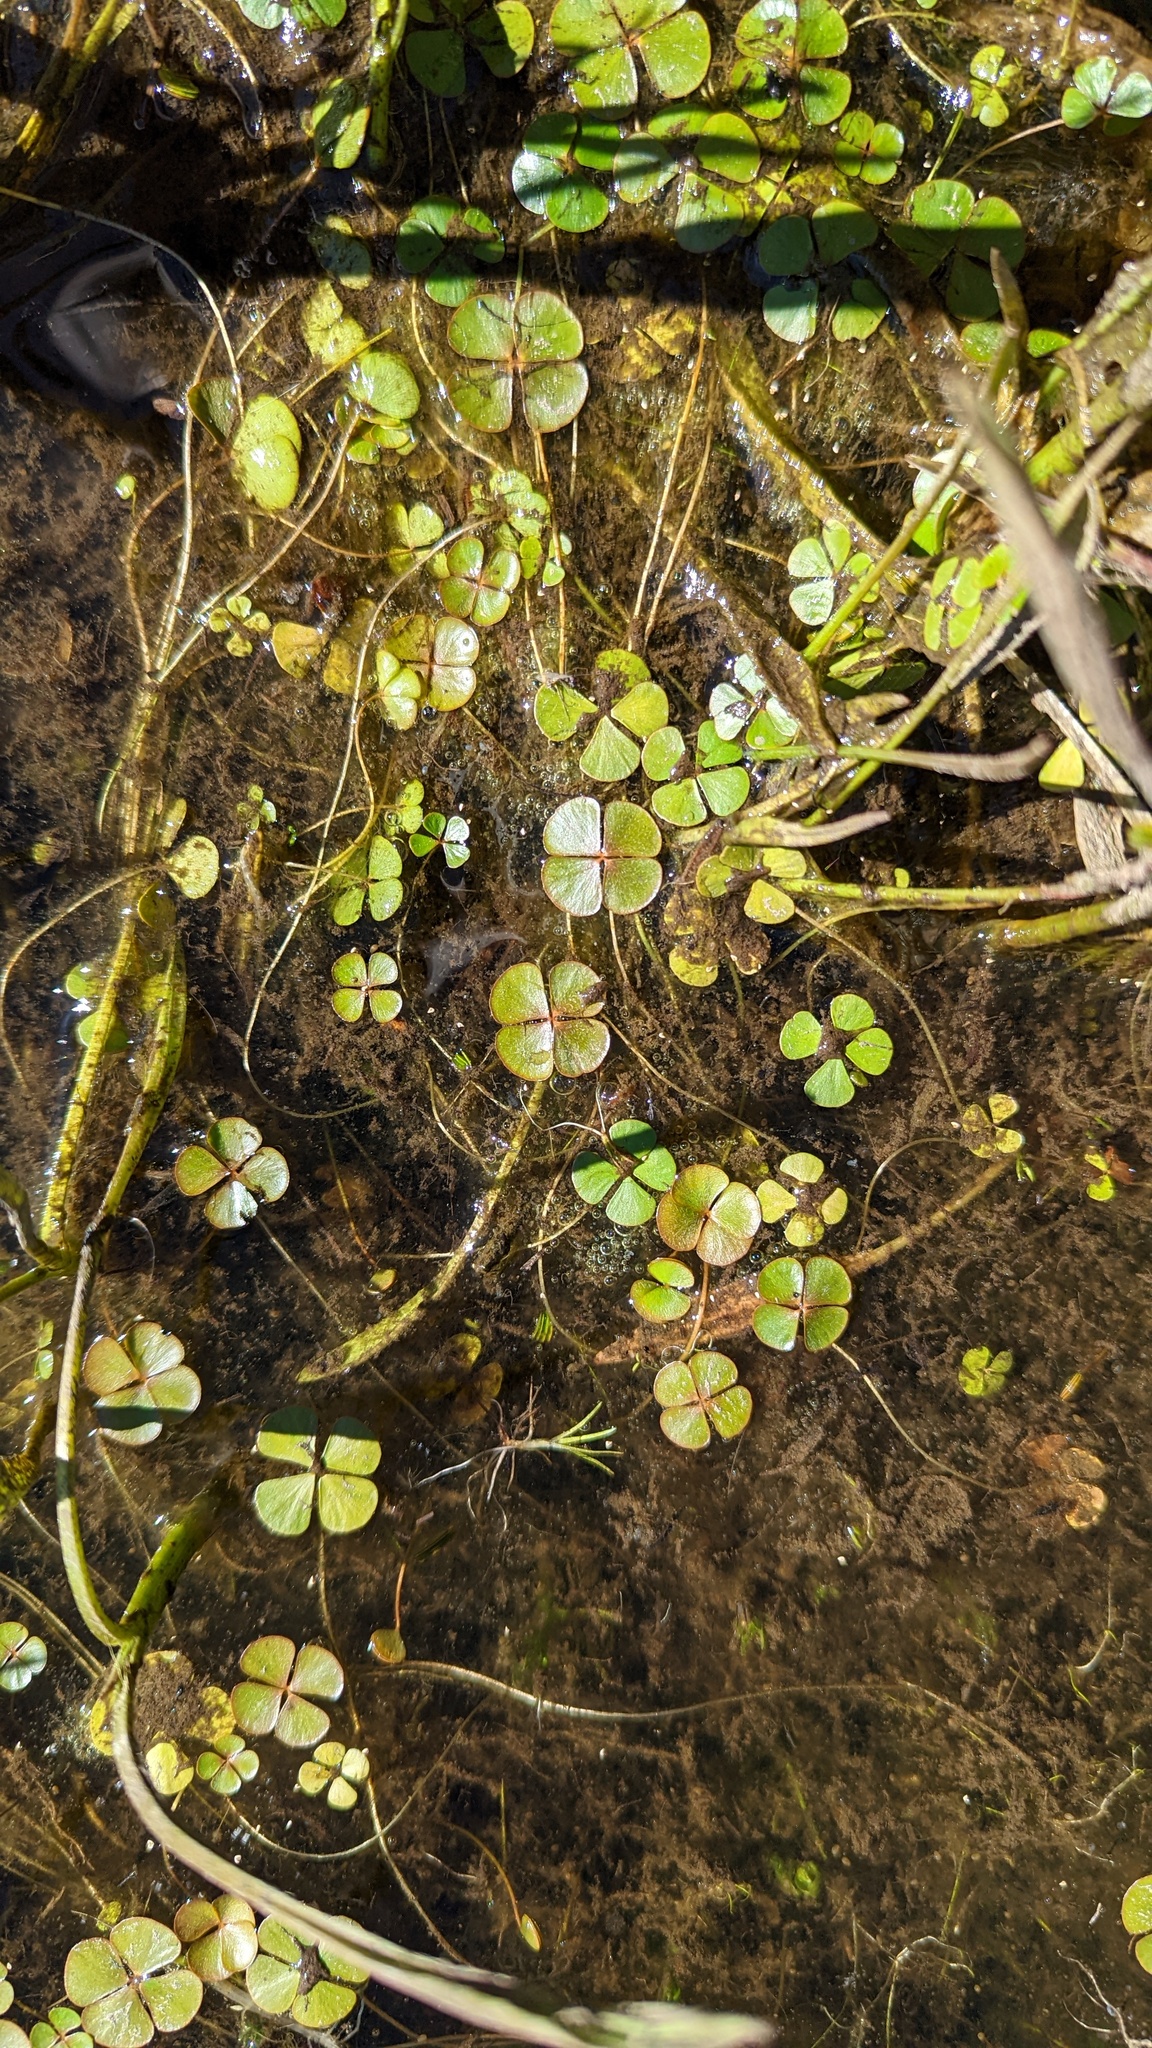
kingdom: Plantae
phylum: Tracheophyta
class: Polypodiopsida
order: Salviniales
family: Marsileaceae
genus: Marsilea
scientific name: Marsilea vestita
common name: Hooked-pepperwort
